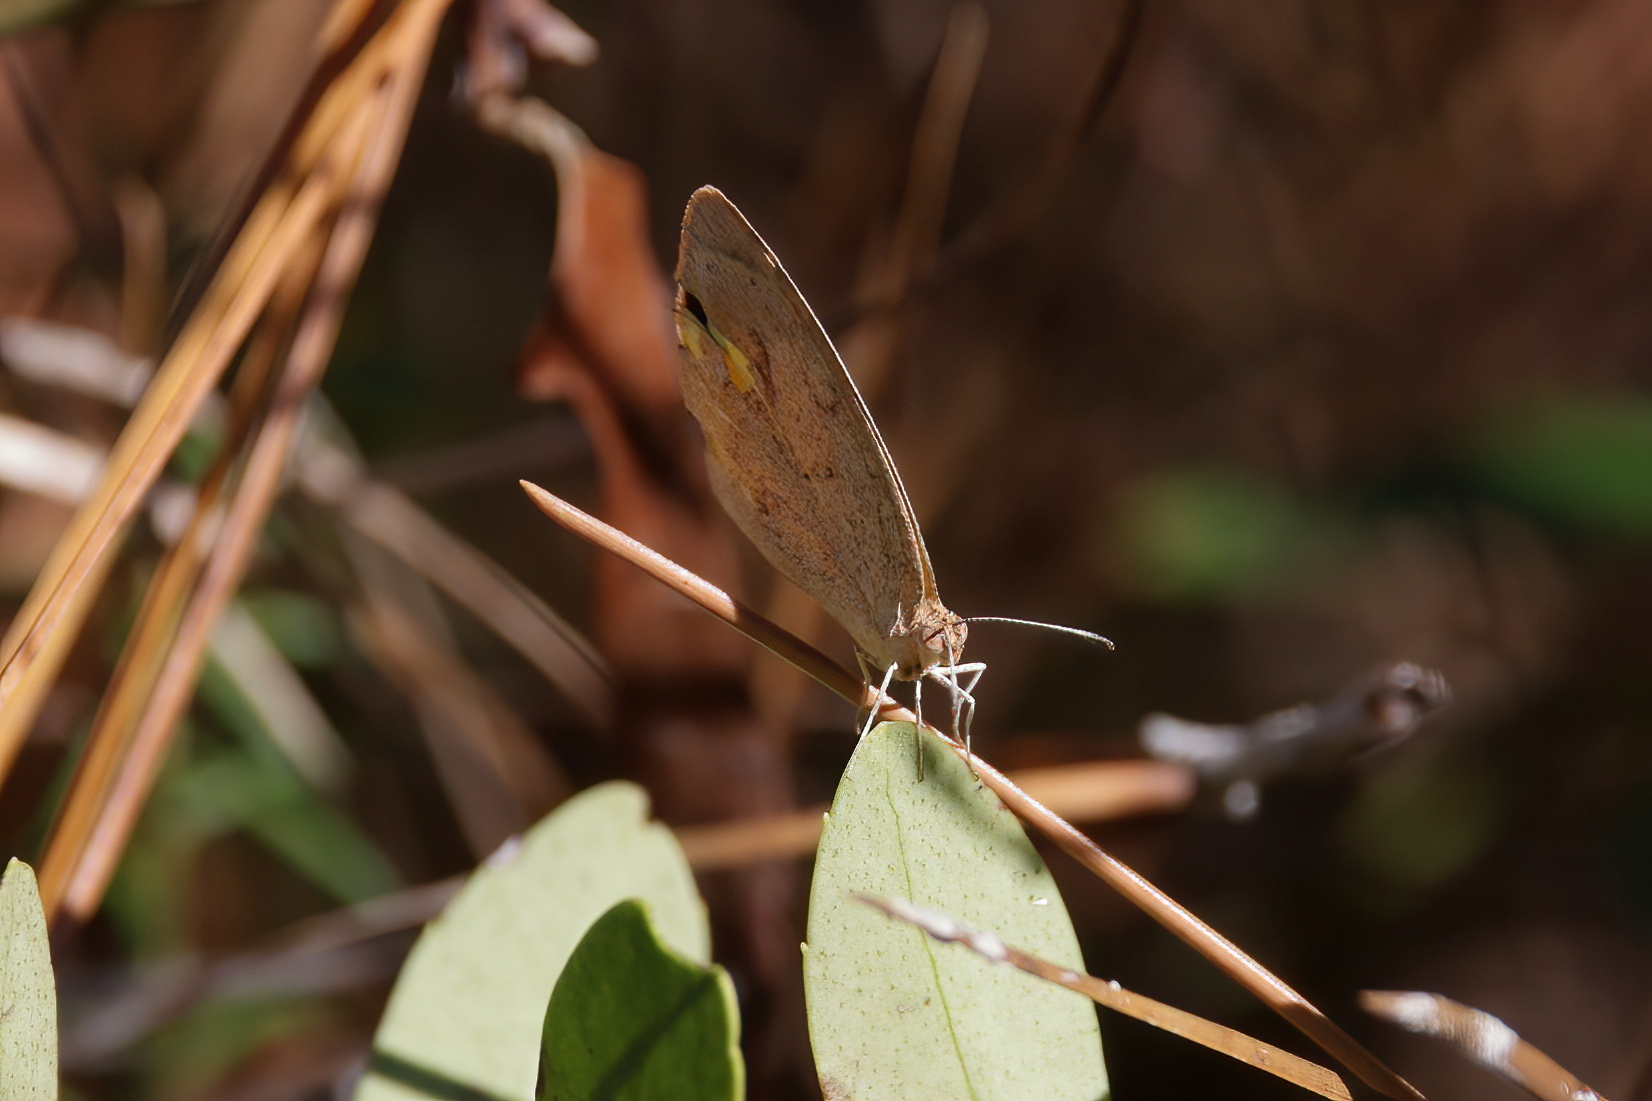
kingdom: Animalia
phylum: Arthropoda
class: Insecta
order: Lepidoptera
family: Pieridae
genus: Eurema
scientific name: Eurema daira
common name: Barred sulphur
